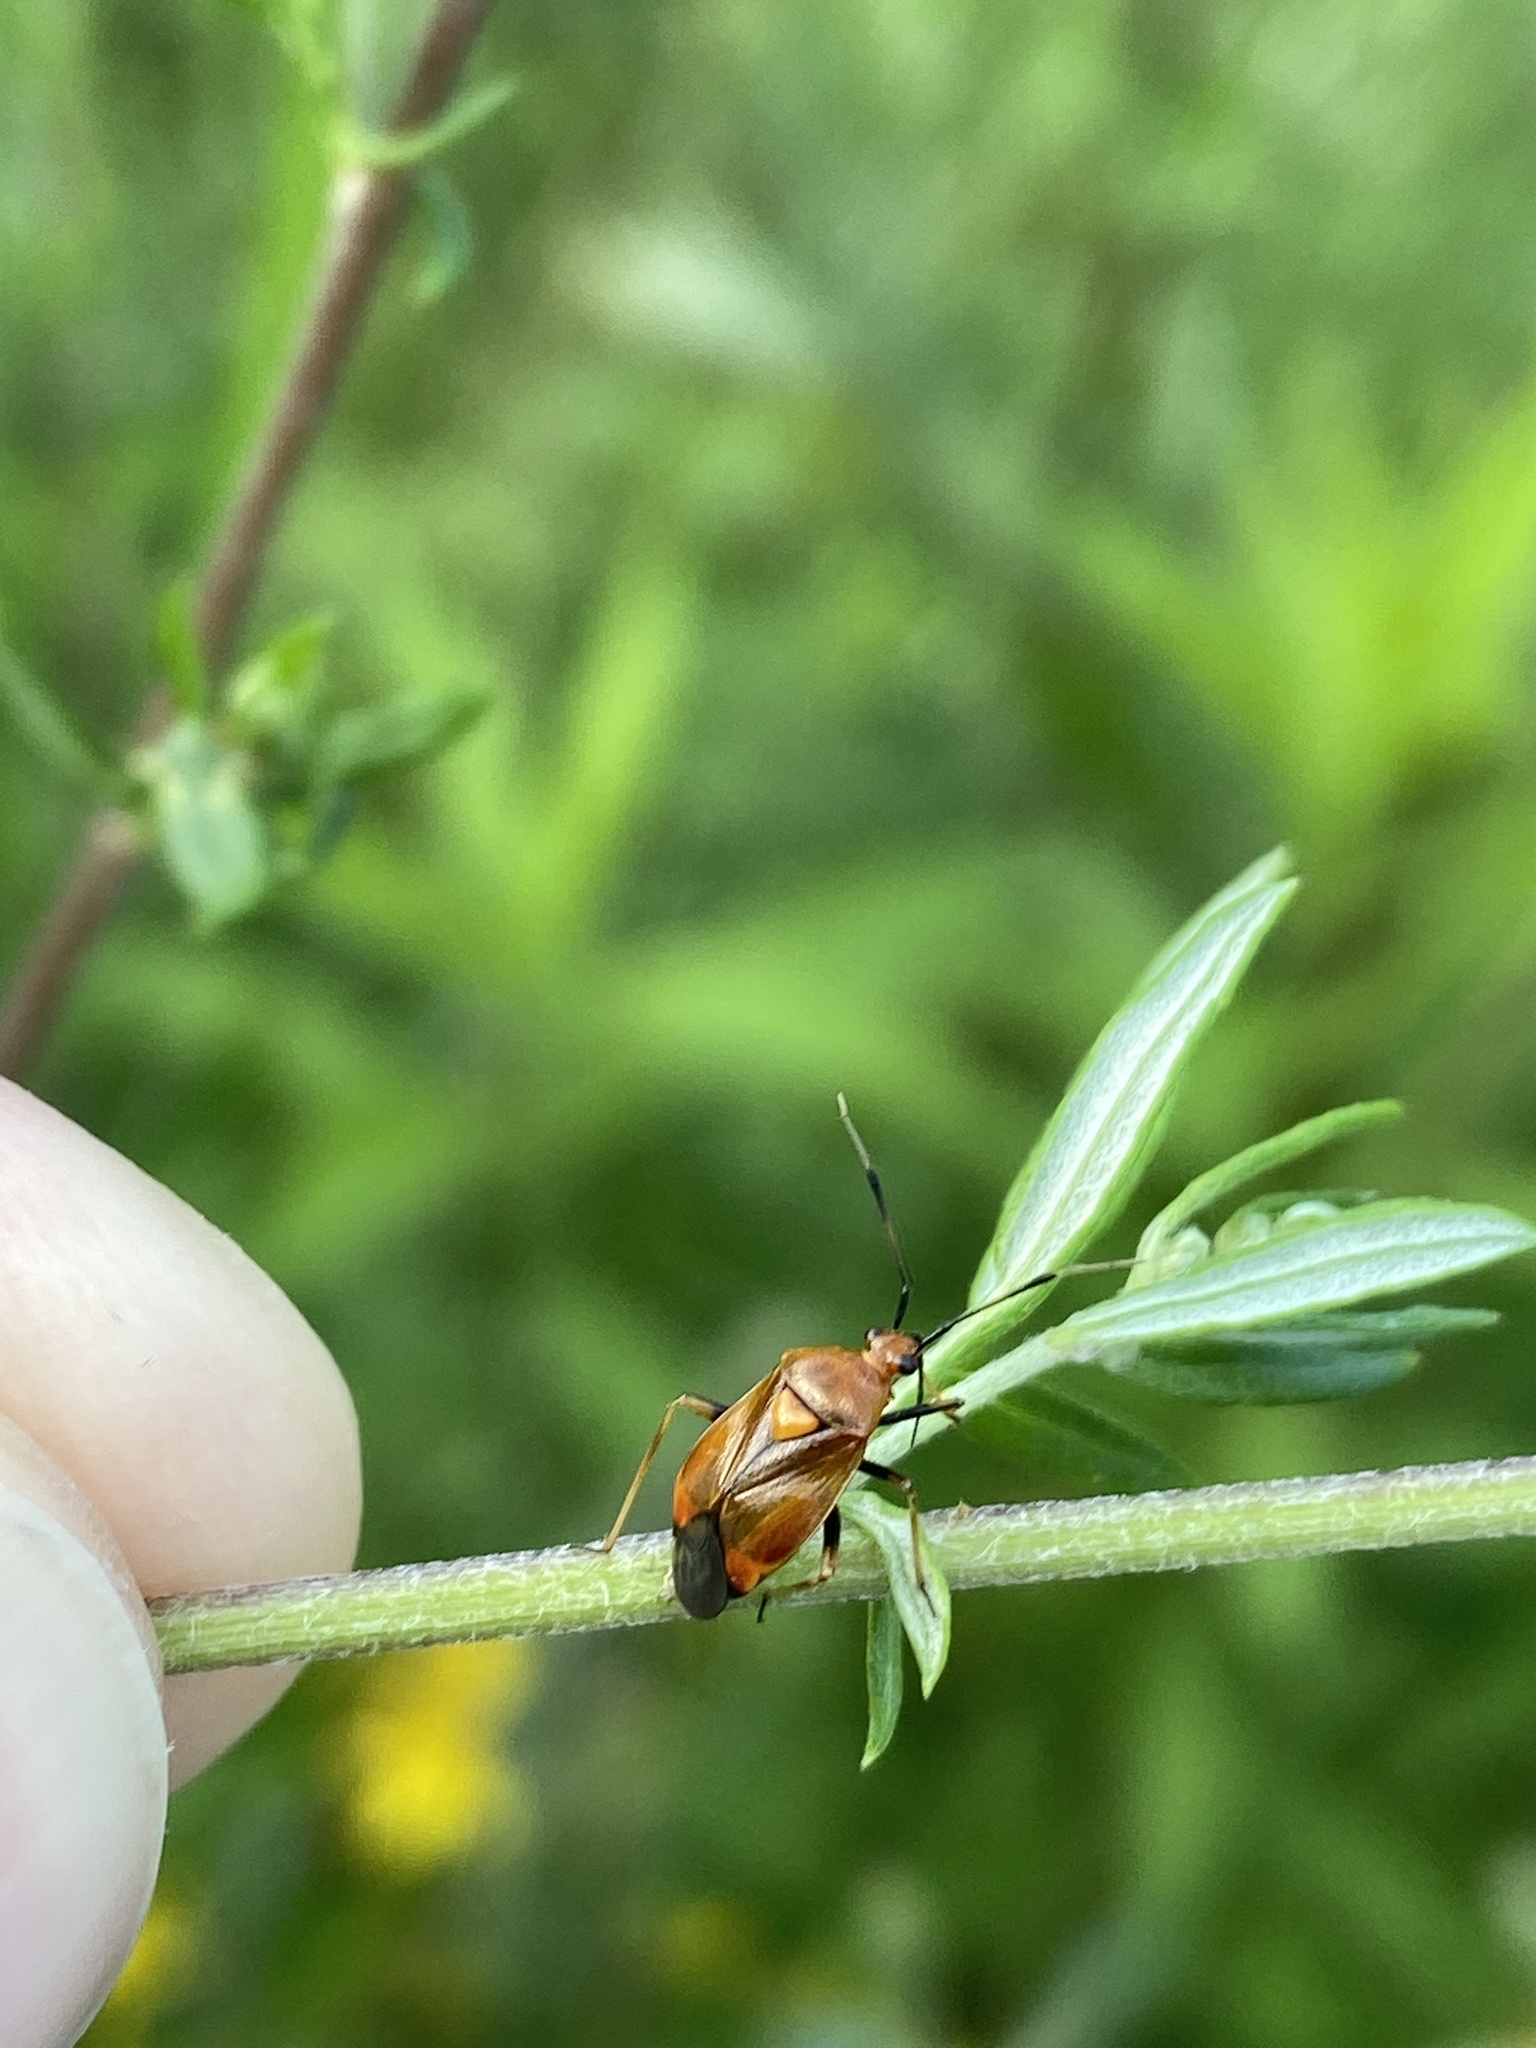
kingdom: Animalia
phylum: Arthropoda
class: Insecta
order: Hemiptera
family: Miridae
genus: Deraeocoris
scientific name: Deraeocoris ruber
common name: Plant bug
